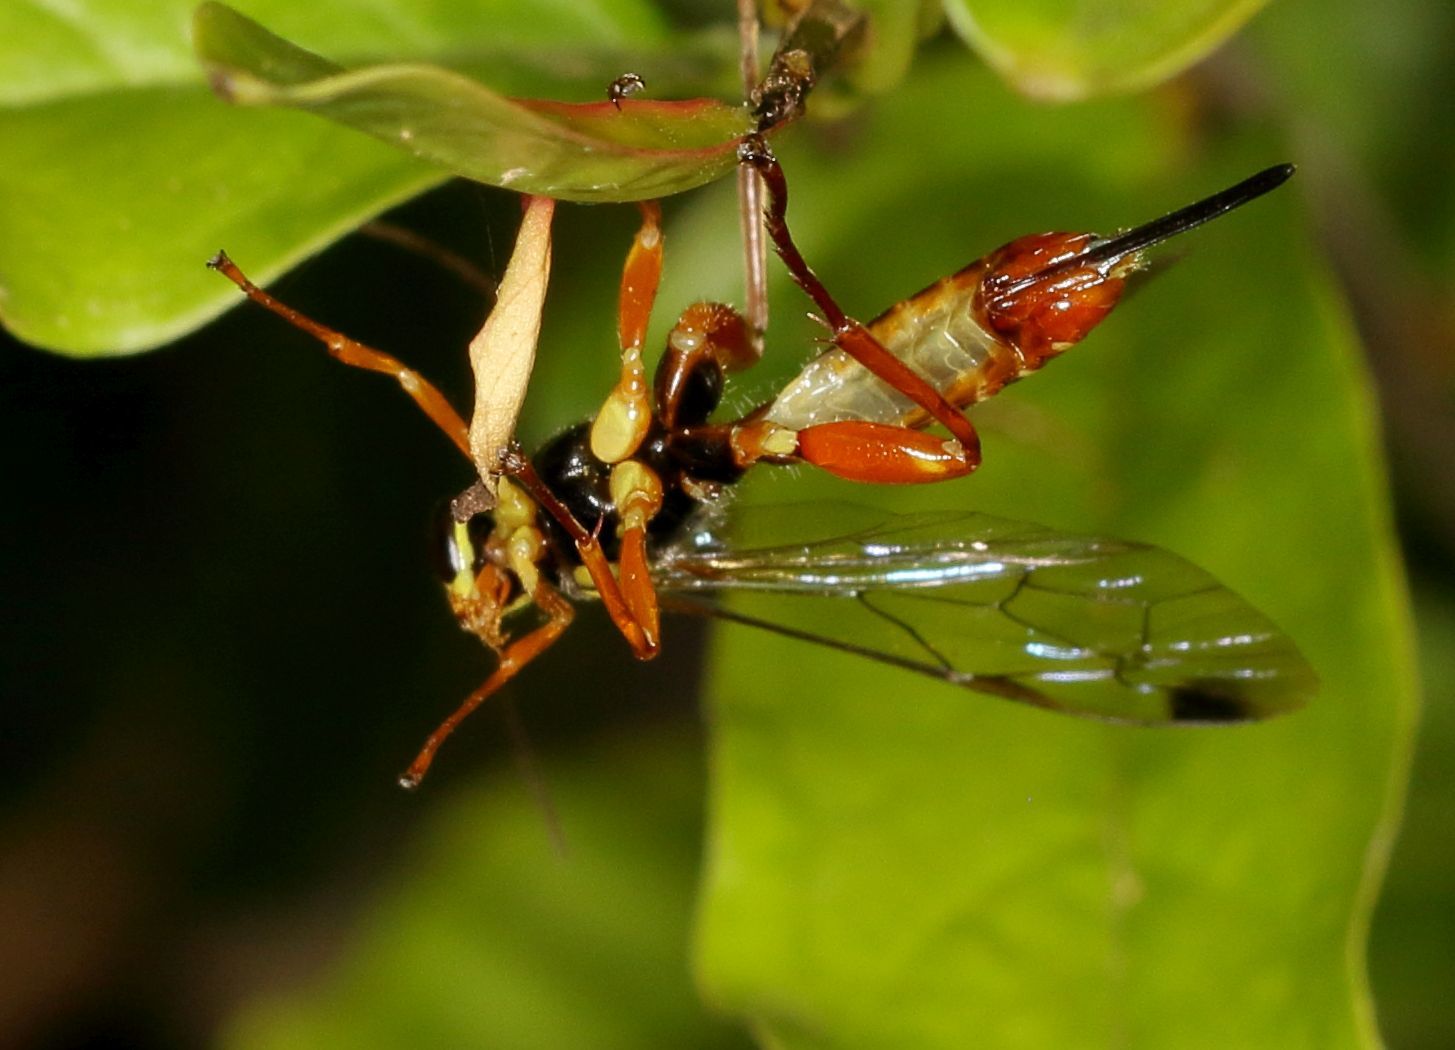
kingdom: Animalia
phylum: Arthropoda
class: Insecta
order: Hymenoptera
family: Ichneumonidae
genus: Echthromorpha
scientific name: Echthromorpha agrestoria
